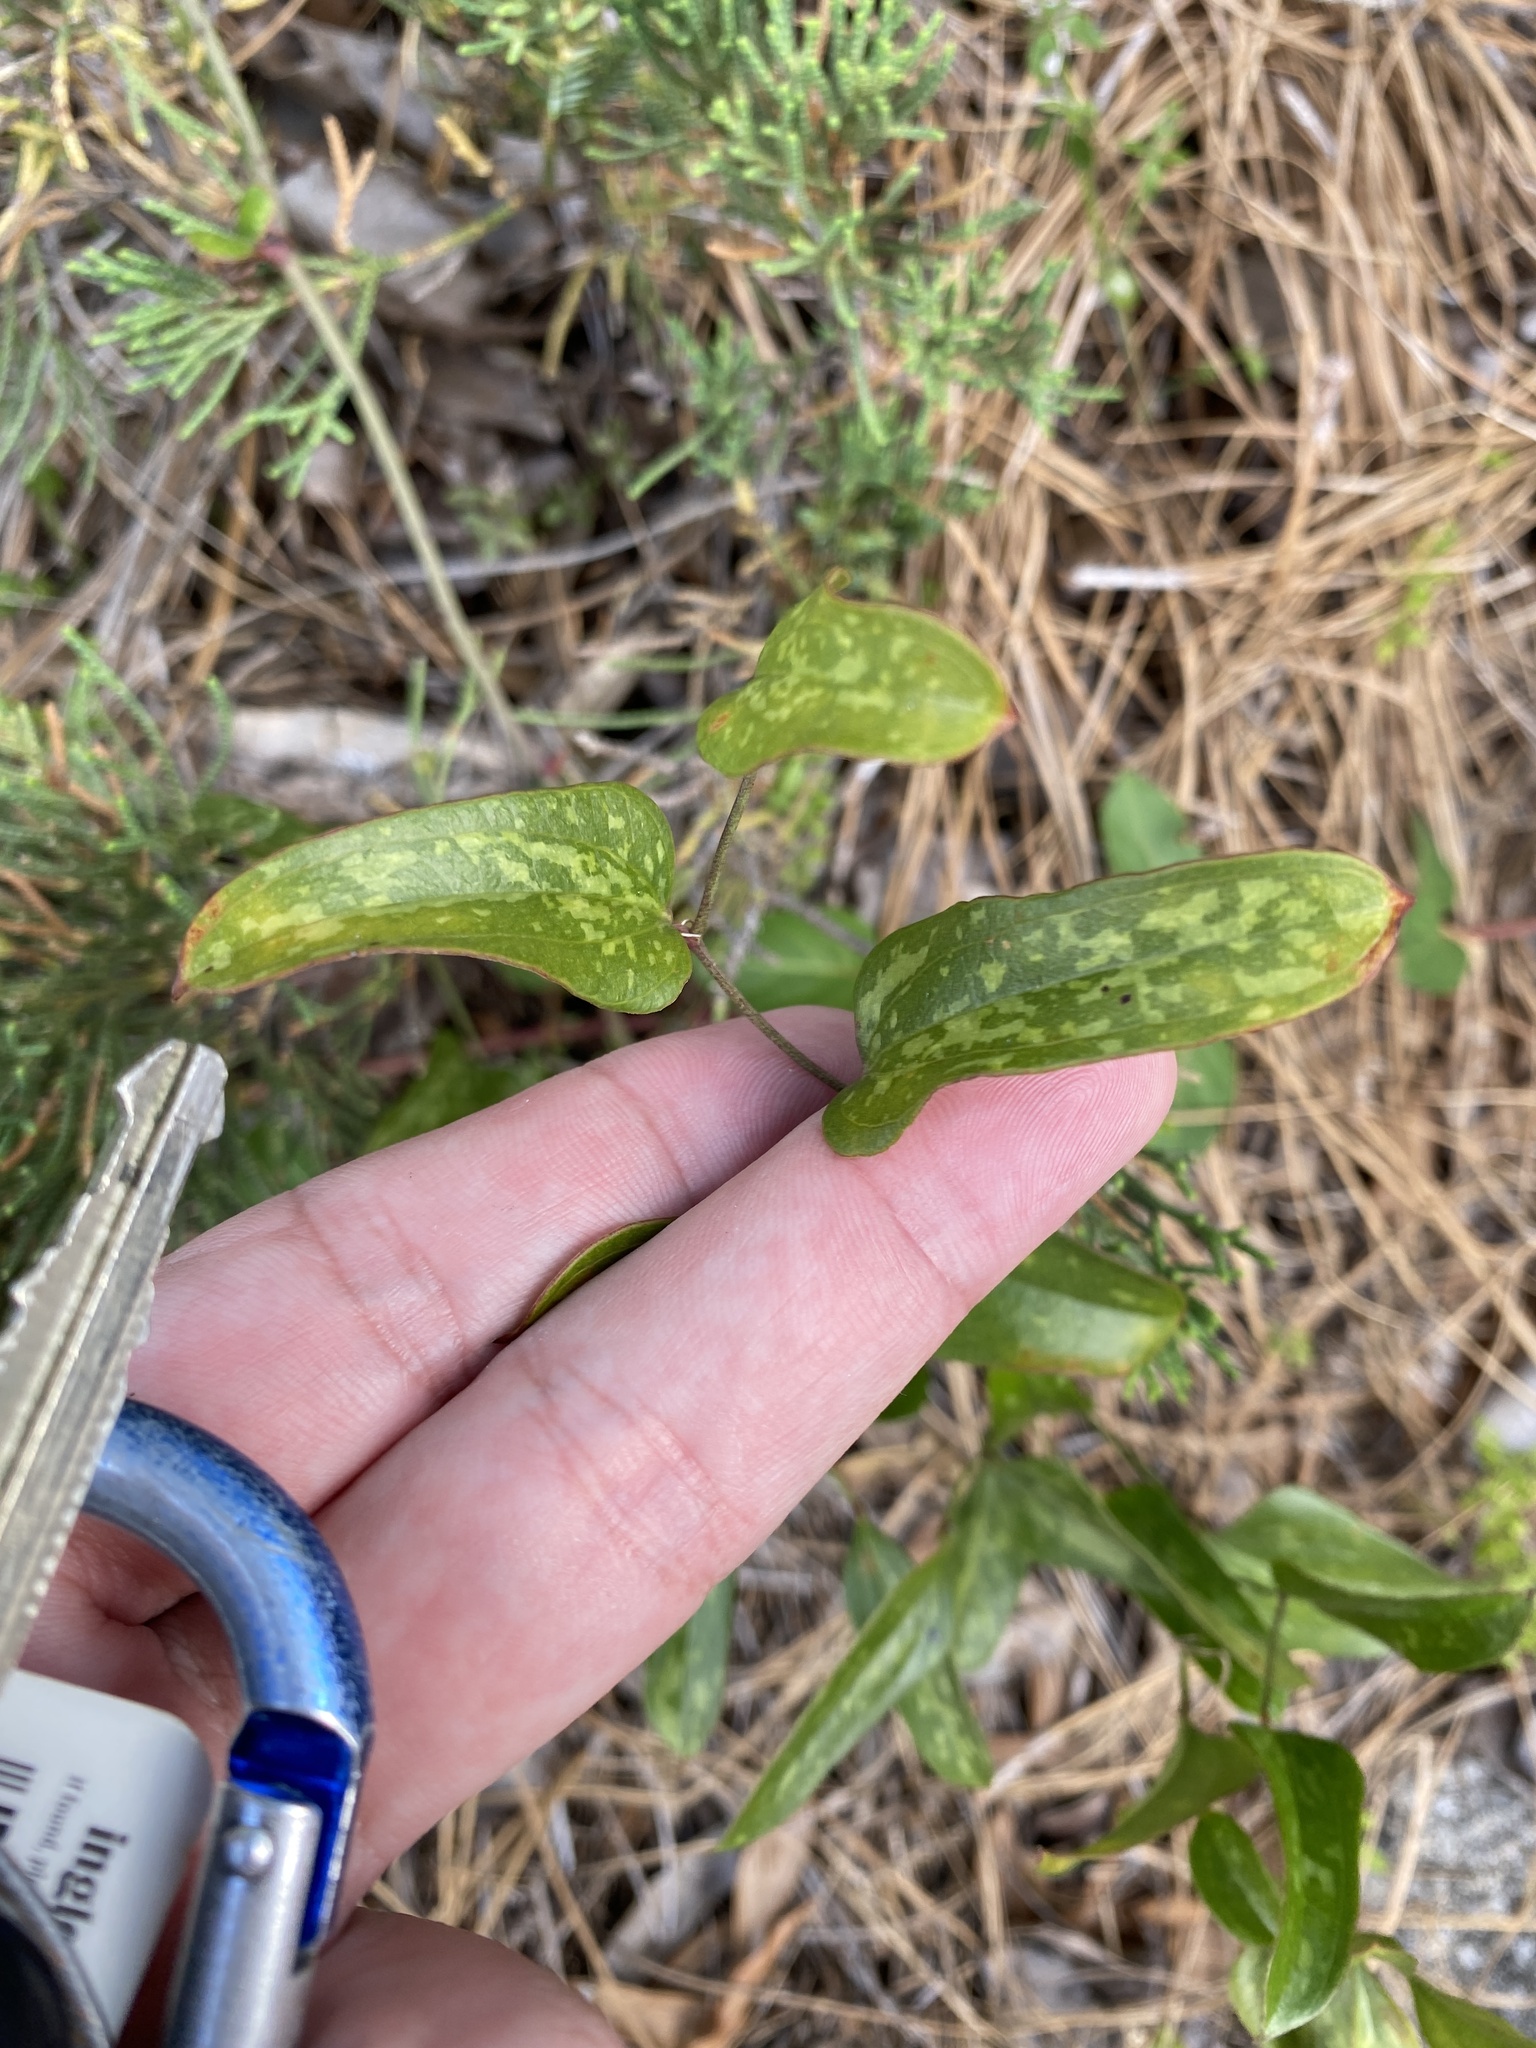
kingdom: Plantae
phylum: Tracheophyta
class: Liliopsida
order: Liliales
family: Smilacaceae
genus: Smilax
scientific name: Smilax auriculata
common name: Wild bamboo
